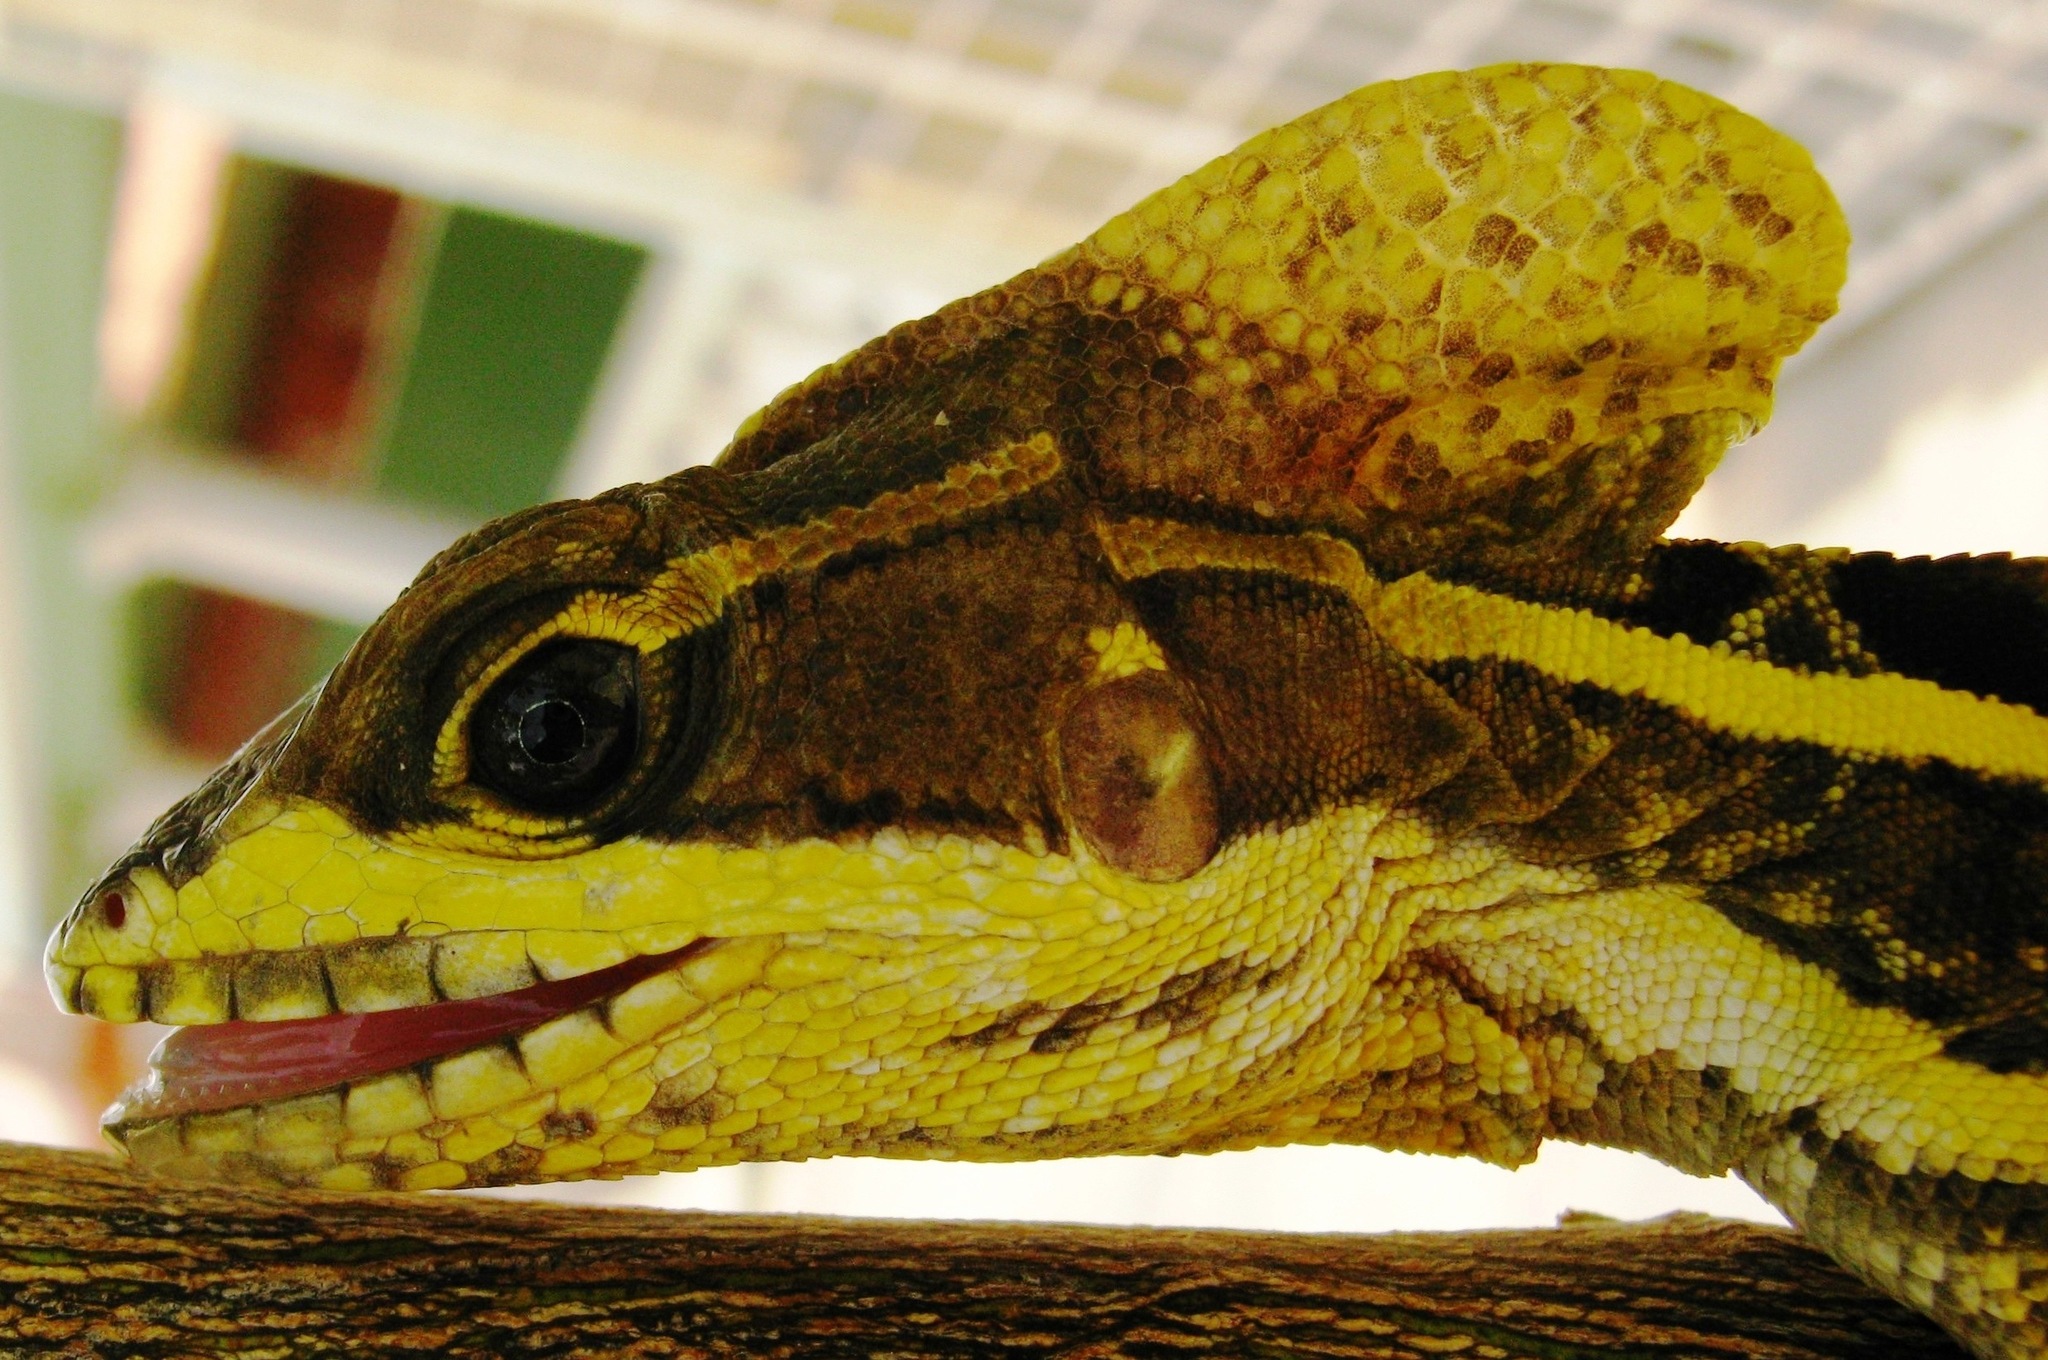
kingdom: Animalia
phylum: Chordata
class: Squamata
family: Corytophanidae
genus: Basiliscus
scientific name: Basiliscus vittatus
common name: Brown basilisk
